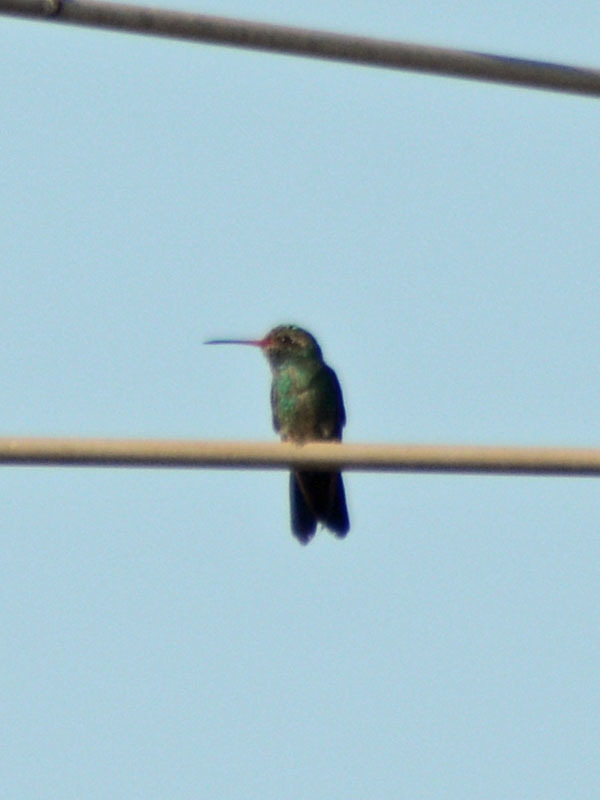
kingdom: Animalia
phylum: Chordata
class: Aves
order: Apodiformes
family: Trochilidae
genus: Cynanthus
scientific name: Cynanthus latirostris
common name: Broad-billed hummingbird
